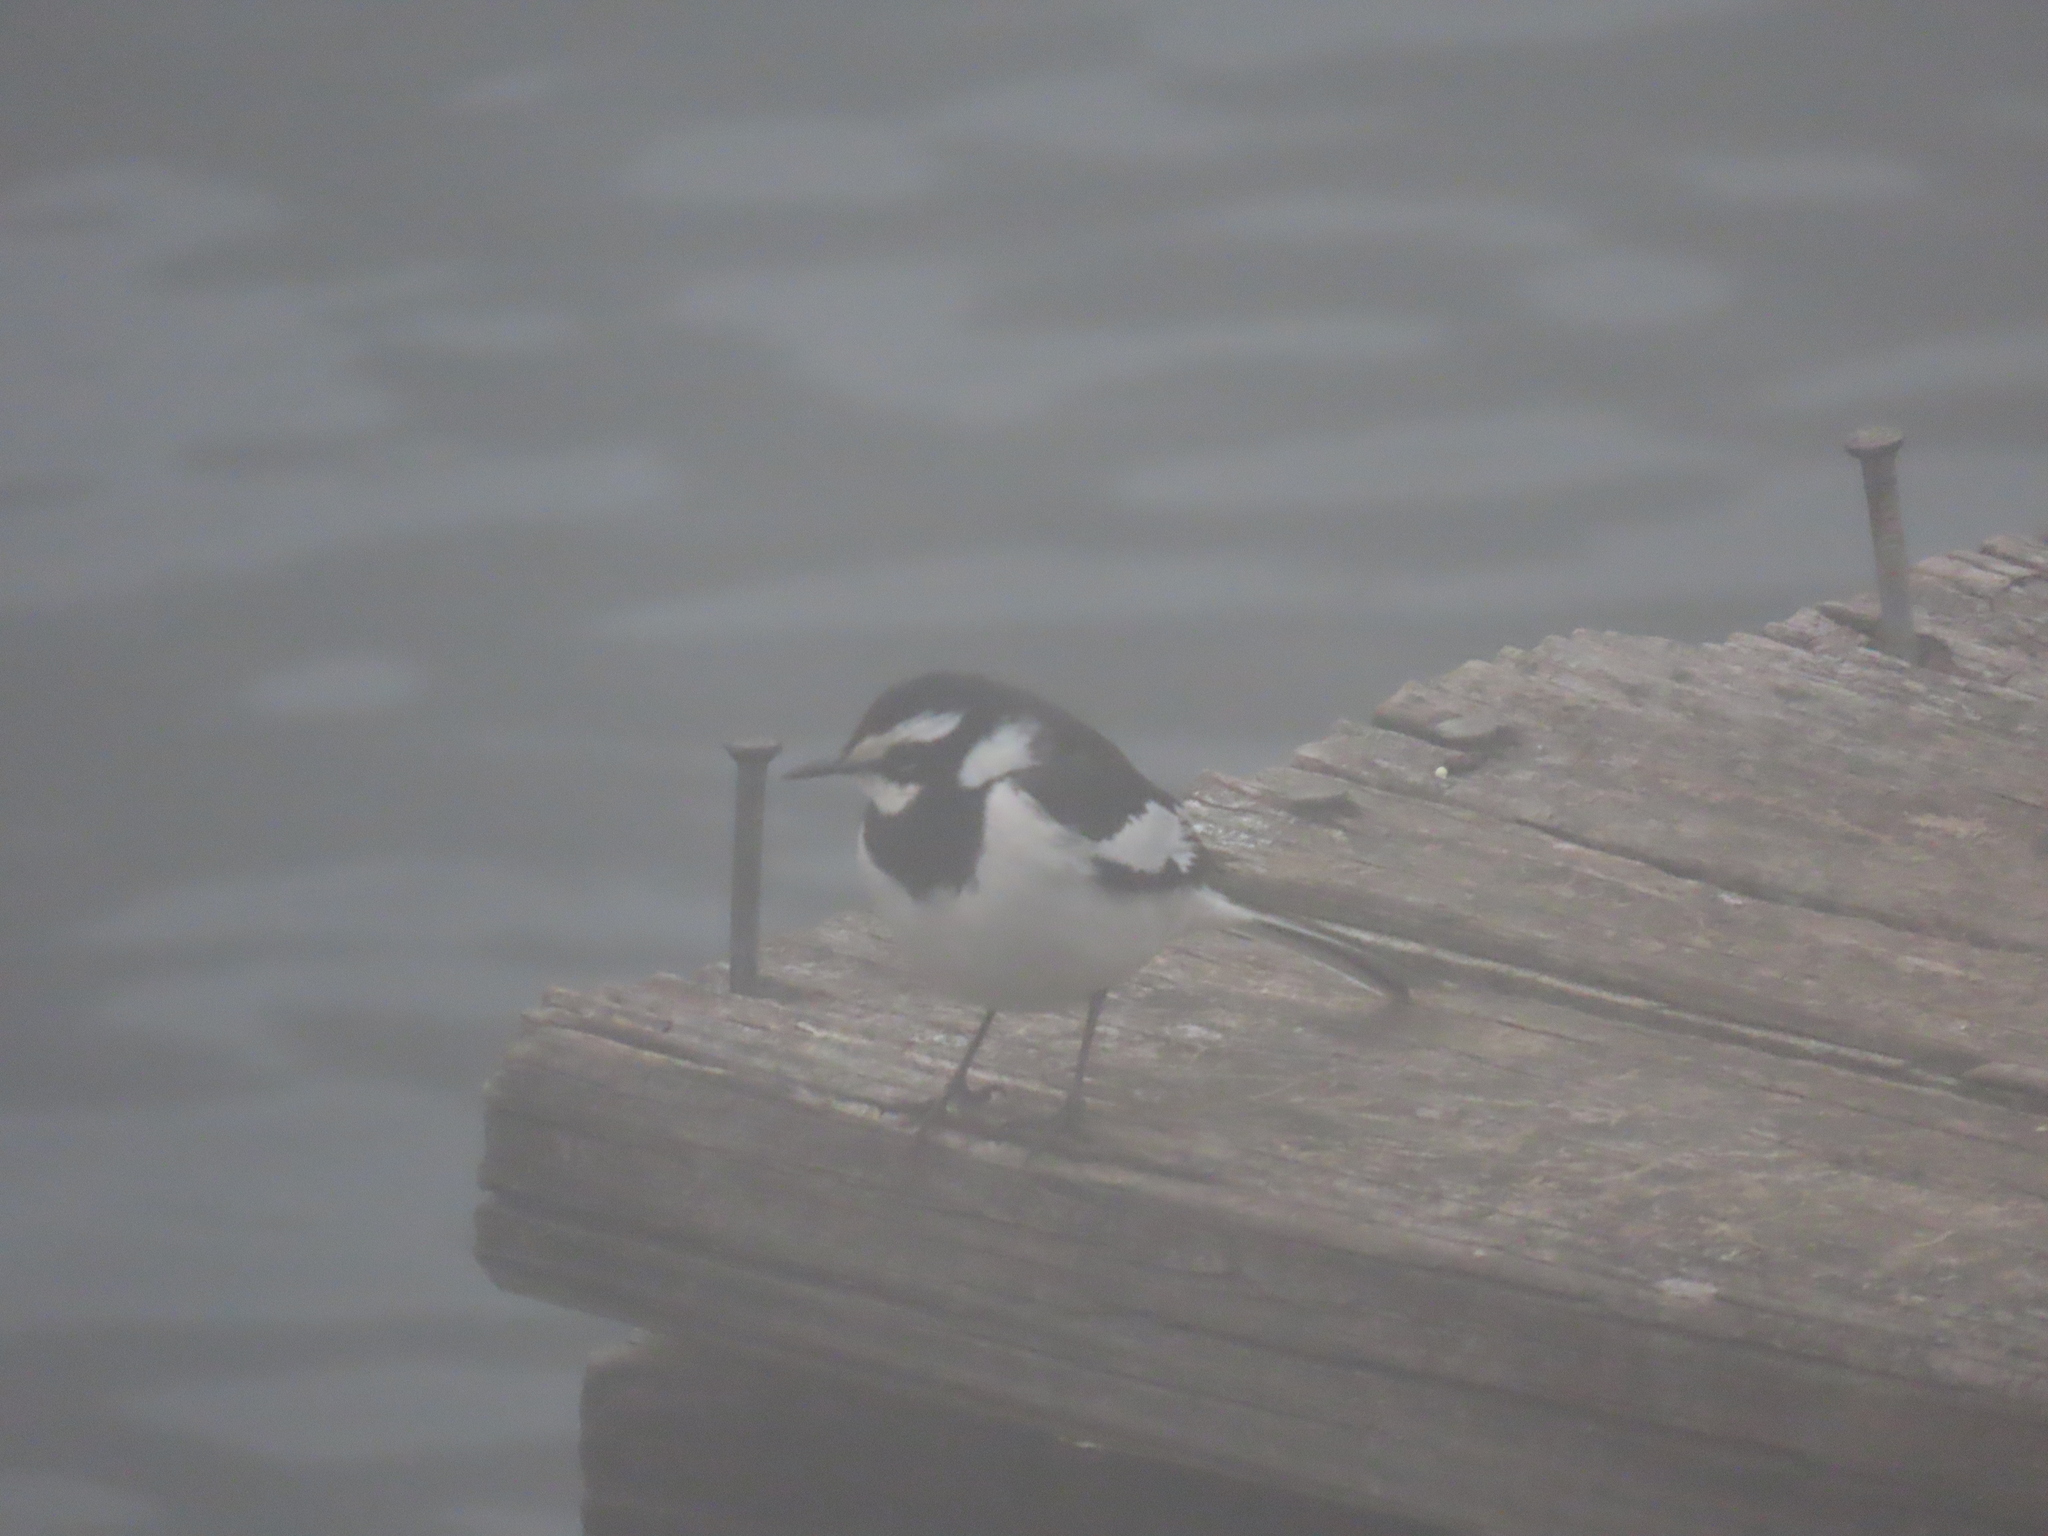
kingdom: Animalia
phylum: Chordata
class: Aves
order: Passeriformes
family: Motacillidae
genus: Motacilla
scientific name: Motacilla aguimp
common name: African pied wagtail
